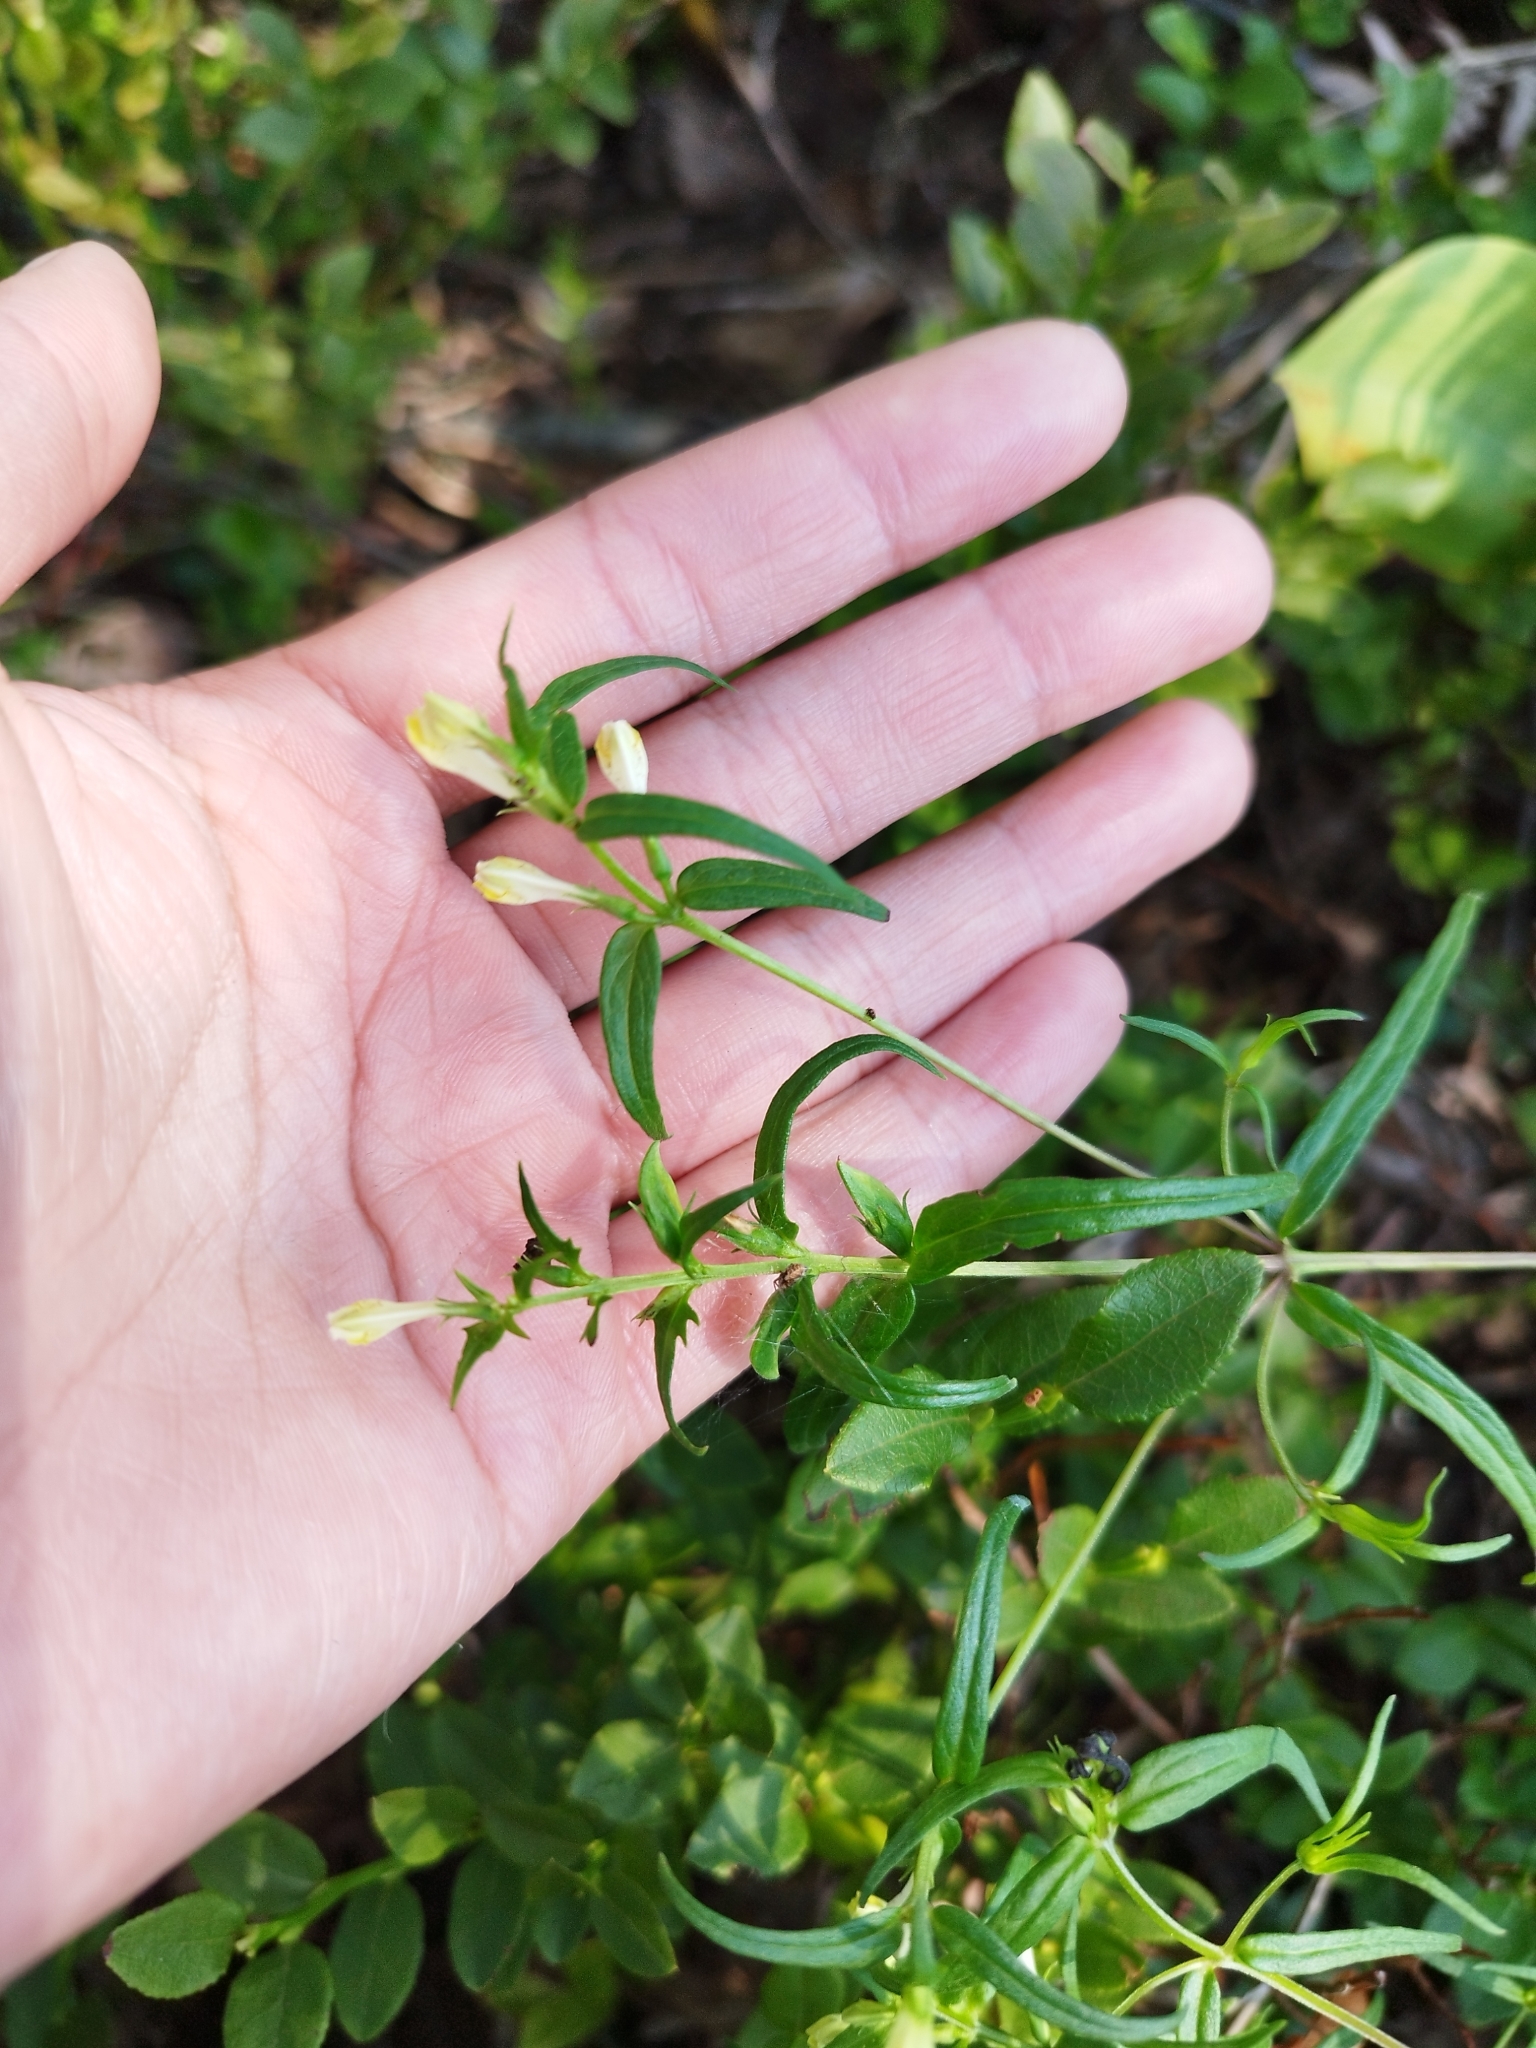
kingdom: Plantae
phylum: Tracheophyta
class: Magnoliopsida
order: Lamiales
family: Orobanchaceae
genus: Melampyrum
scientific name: Melampyrum pratense
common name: Common cow-wheat
